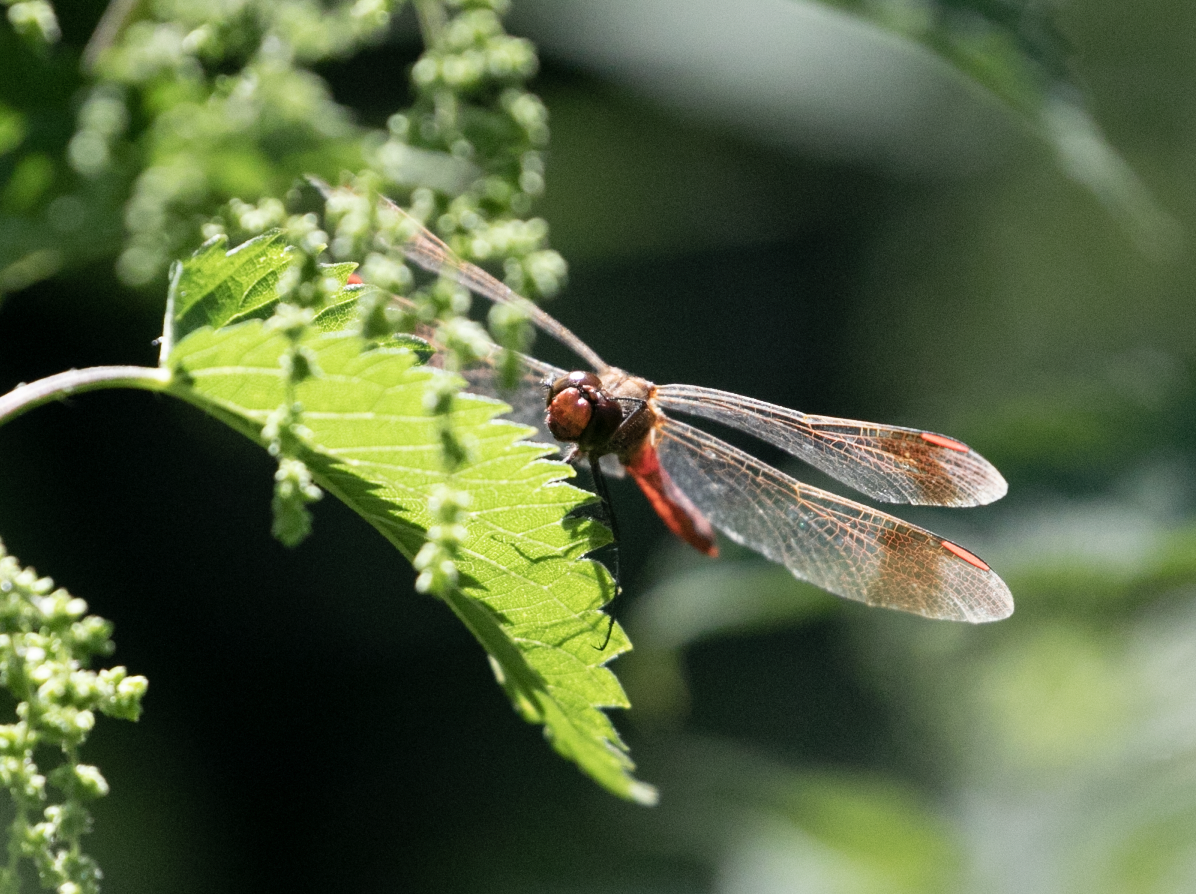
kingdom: Animalia
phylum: Arthropoda
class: Insecta
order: Odonata
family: Libellulidae
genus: Sympetrum
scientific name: Sympetrum pedemontanum
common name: Banded darter
